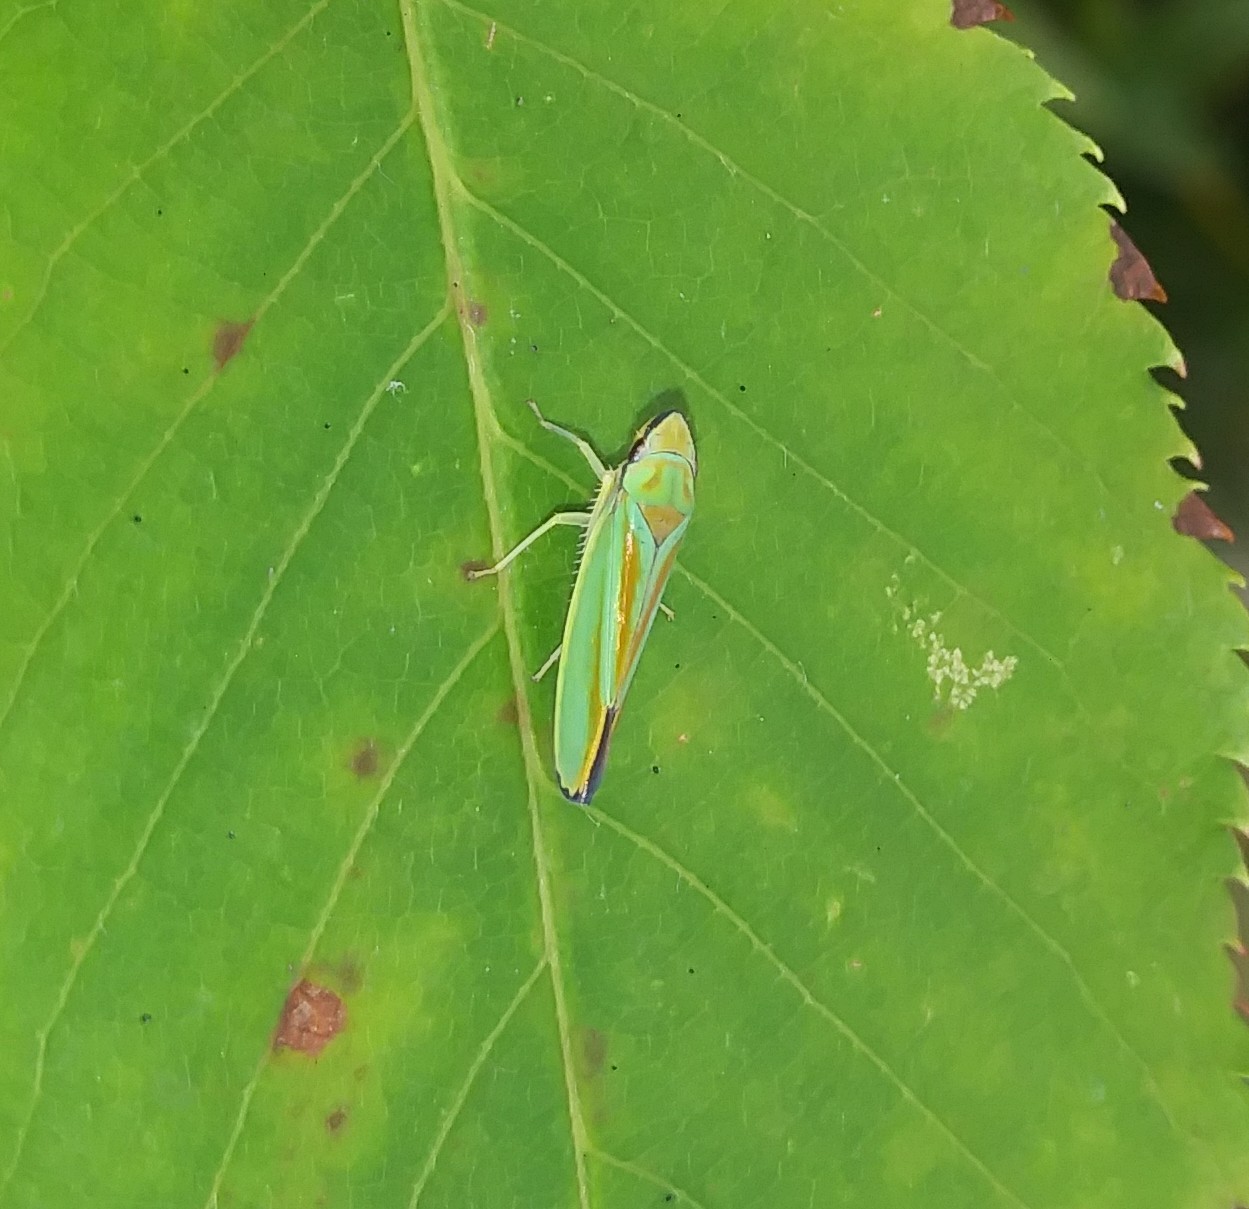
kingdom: Animalia
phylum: Arthropoda
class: Insecta
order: Hemiptera
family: Cicadellidae
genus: Graphocephala
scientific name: Graphocephala fennahi
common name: Rhododendron leafhopper
